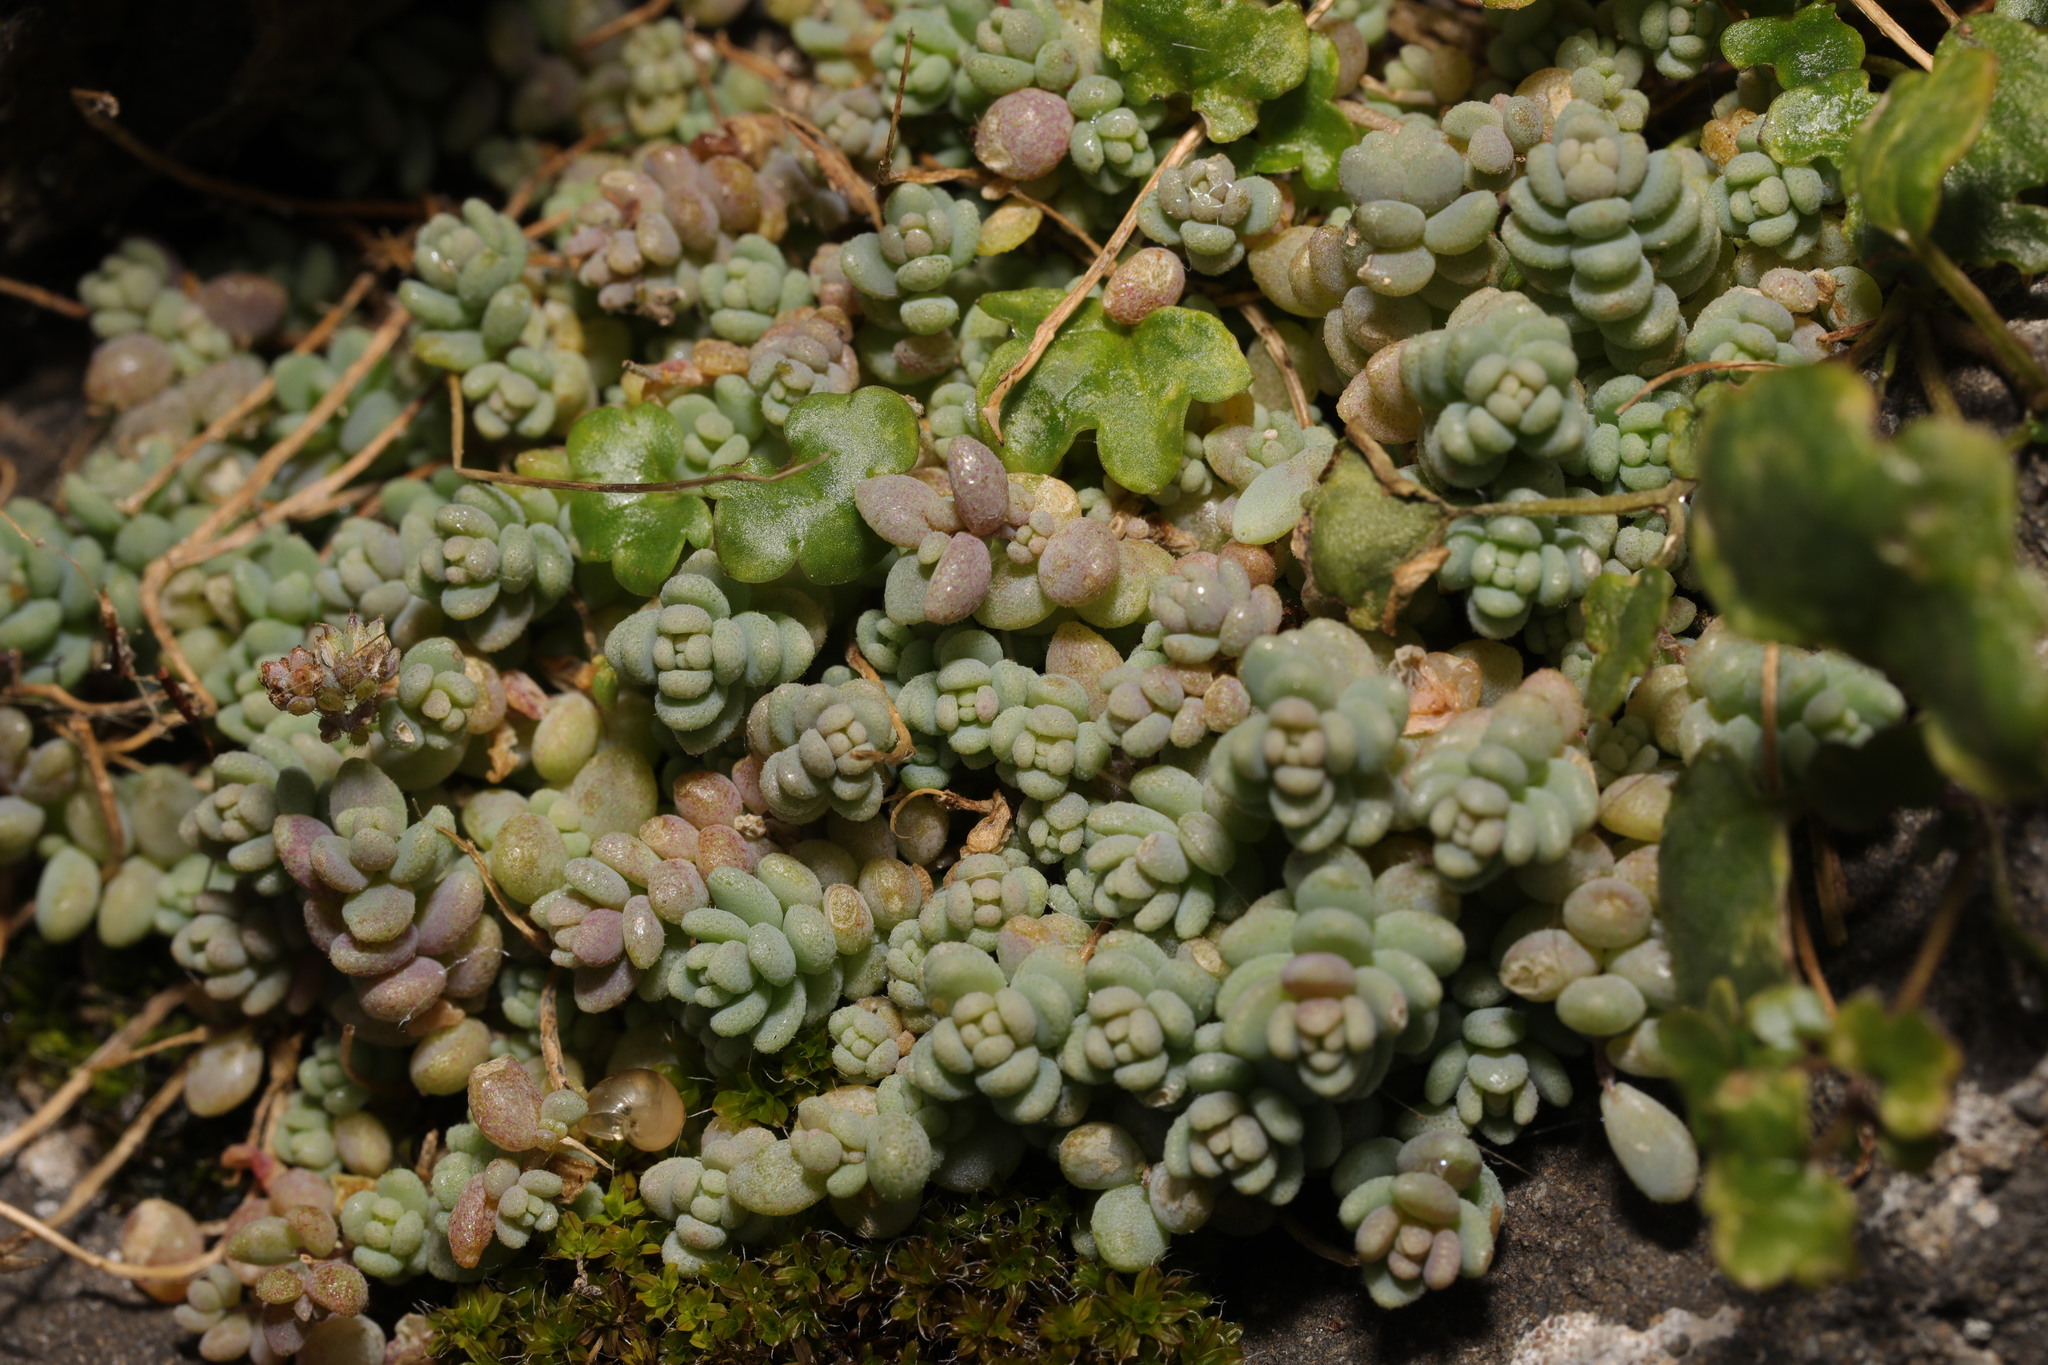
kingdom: Plantae
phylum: Tracheophyta
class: Magnoliopsida
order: Saxifragales
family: Crassulaceae
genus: Sedum
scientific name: Sedum dasyphyllum
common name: Thick-leaf stonecrop
